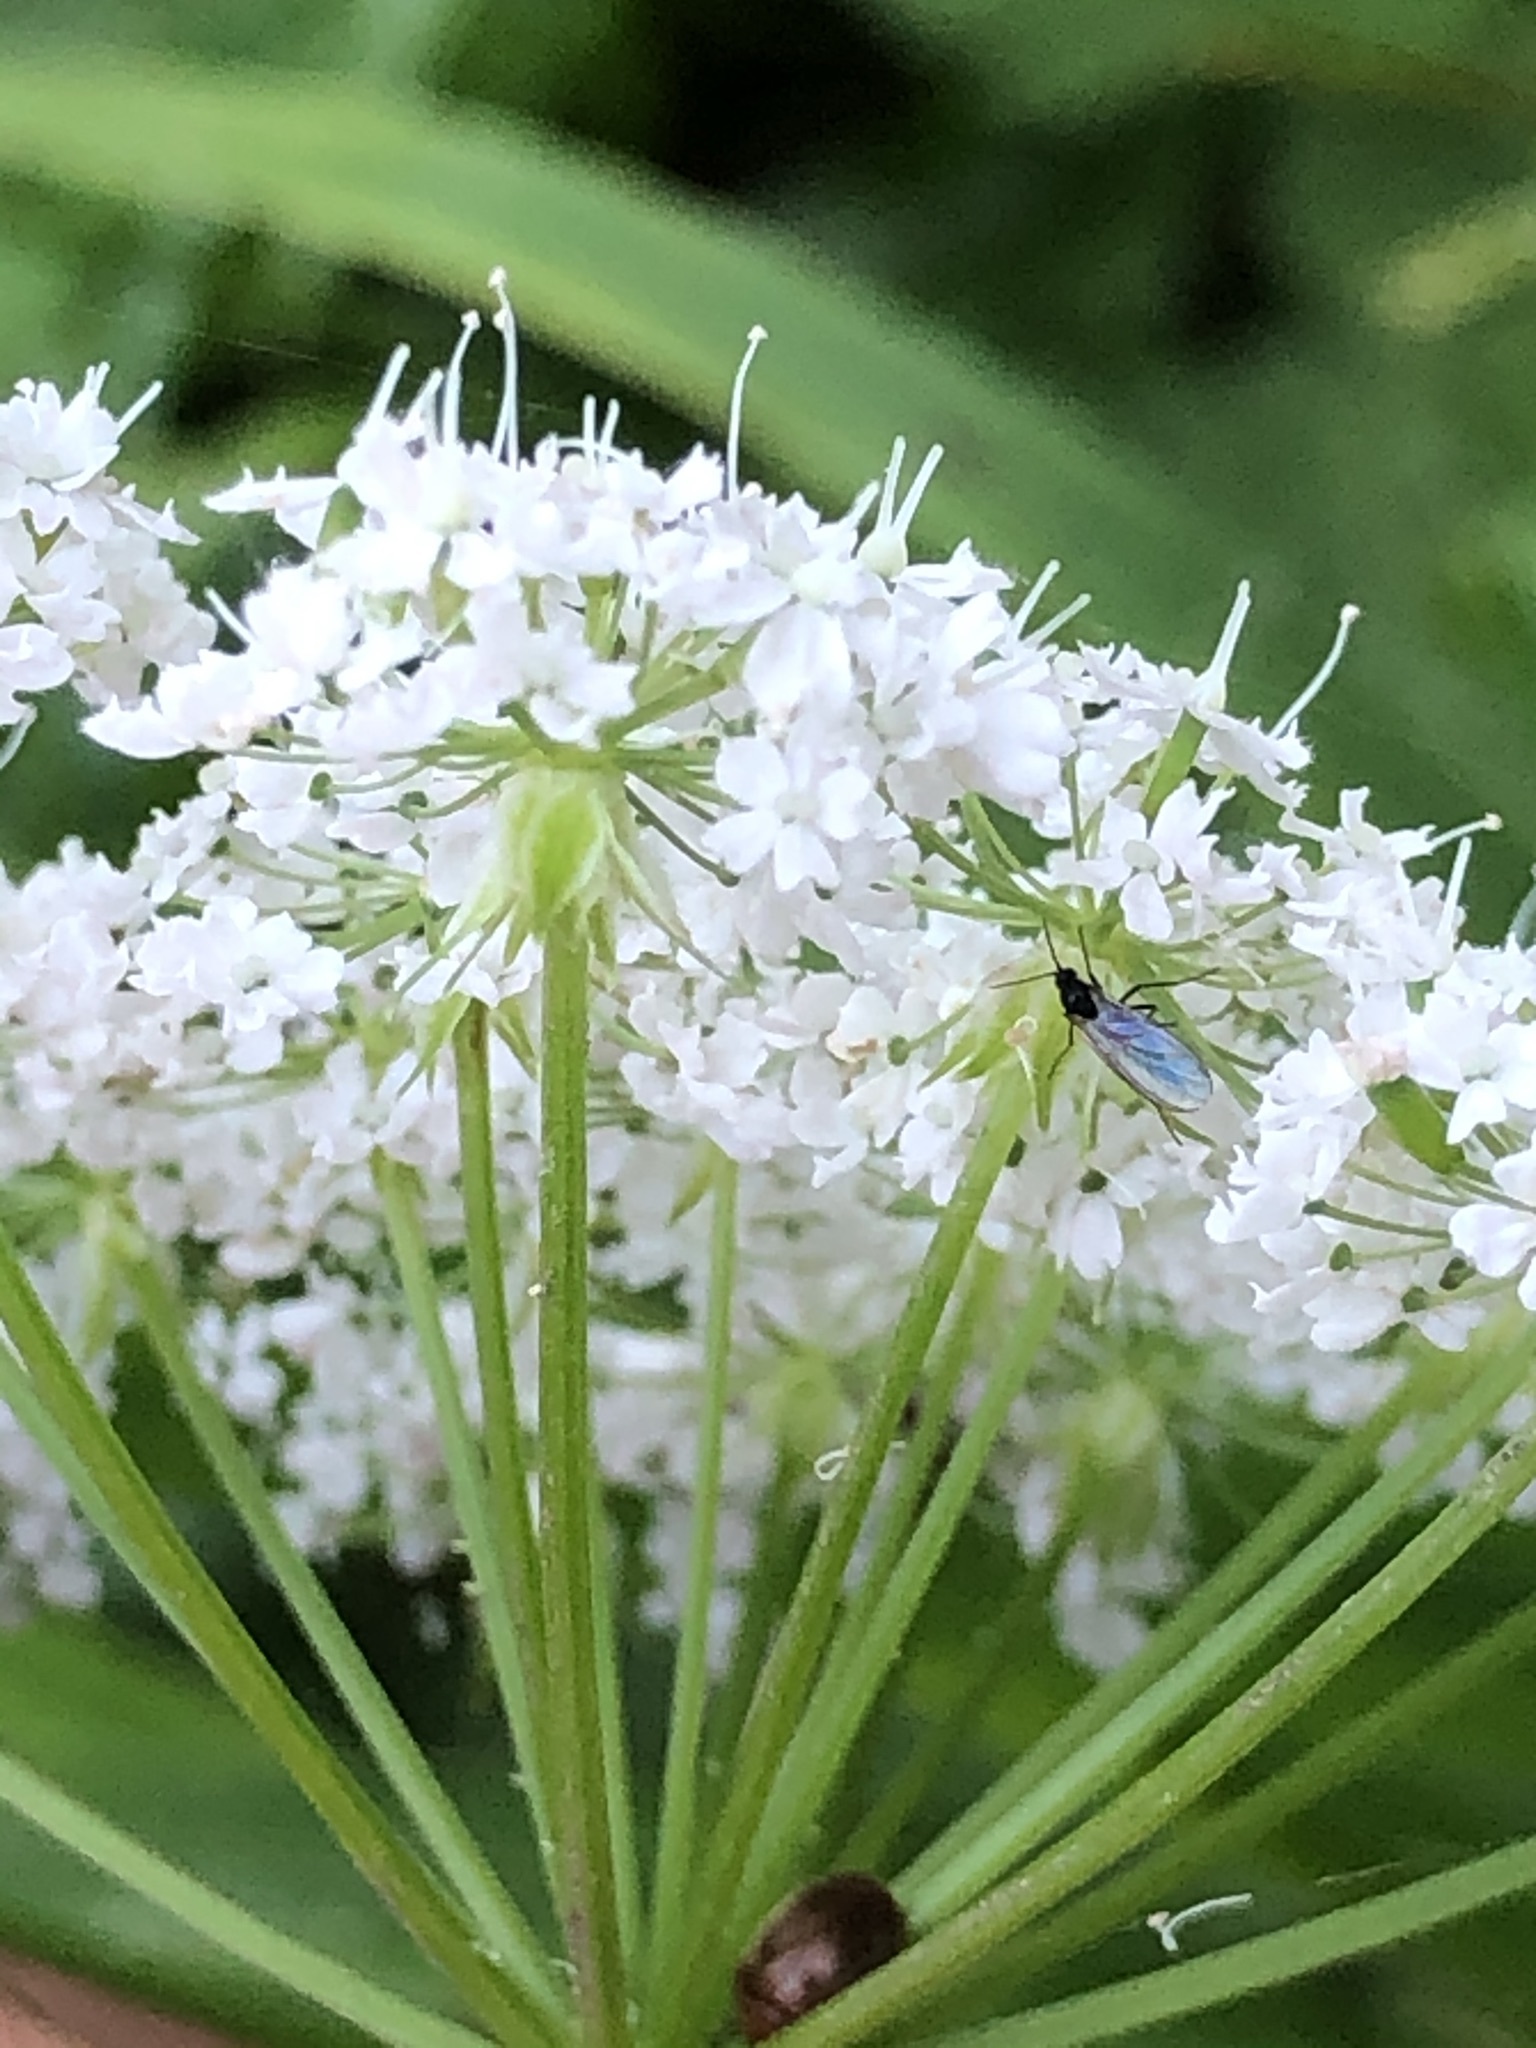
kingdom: Plantae
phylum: Tracheophyta
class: Magnoliopsida
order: Apiales
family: Apiaceae
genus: Chaerophyllum
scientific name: Chaerophyllum hirsutum
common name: Hairy chervil
